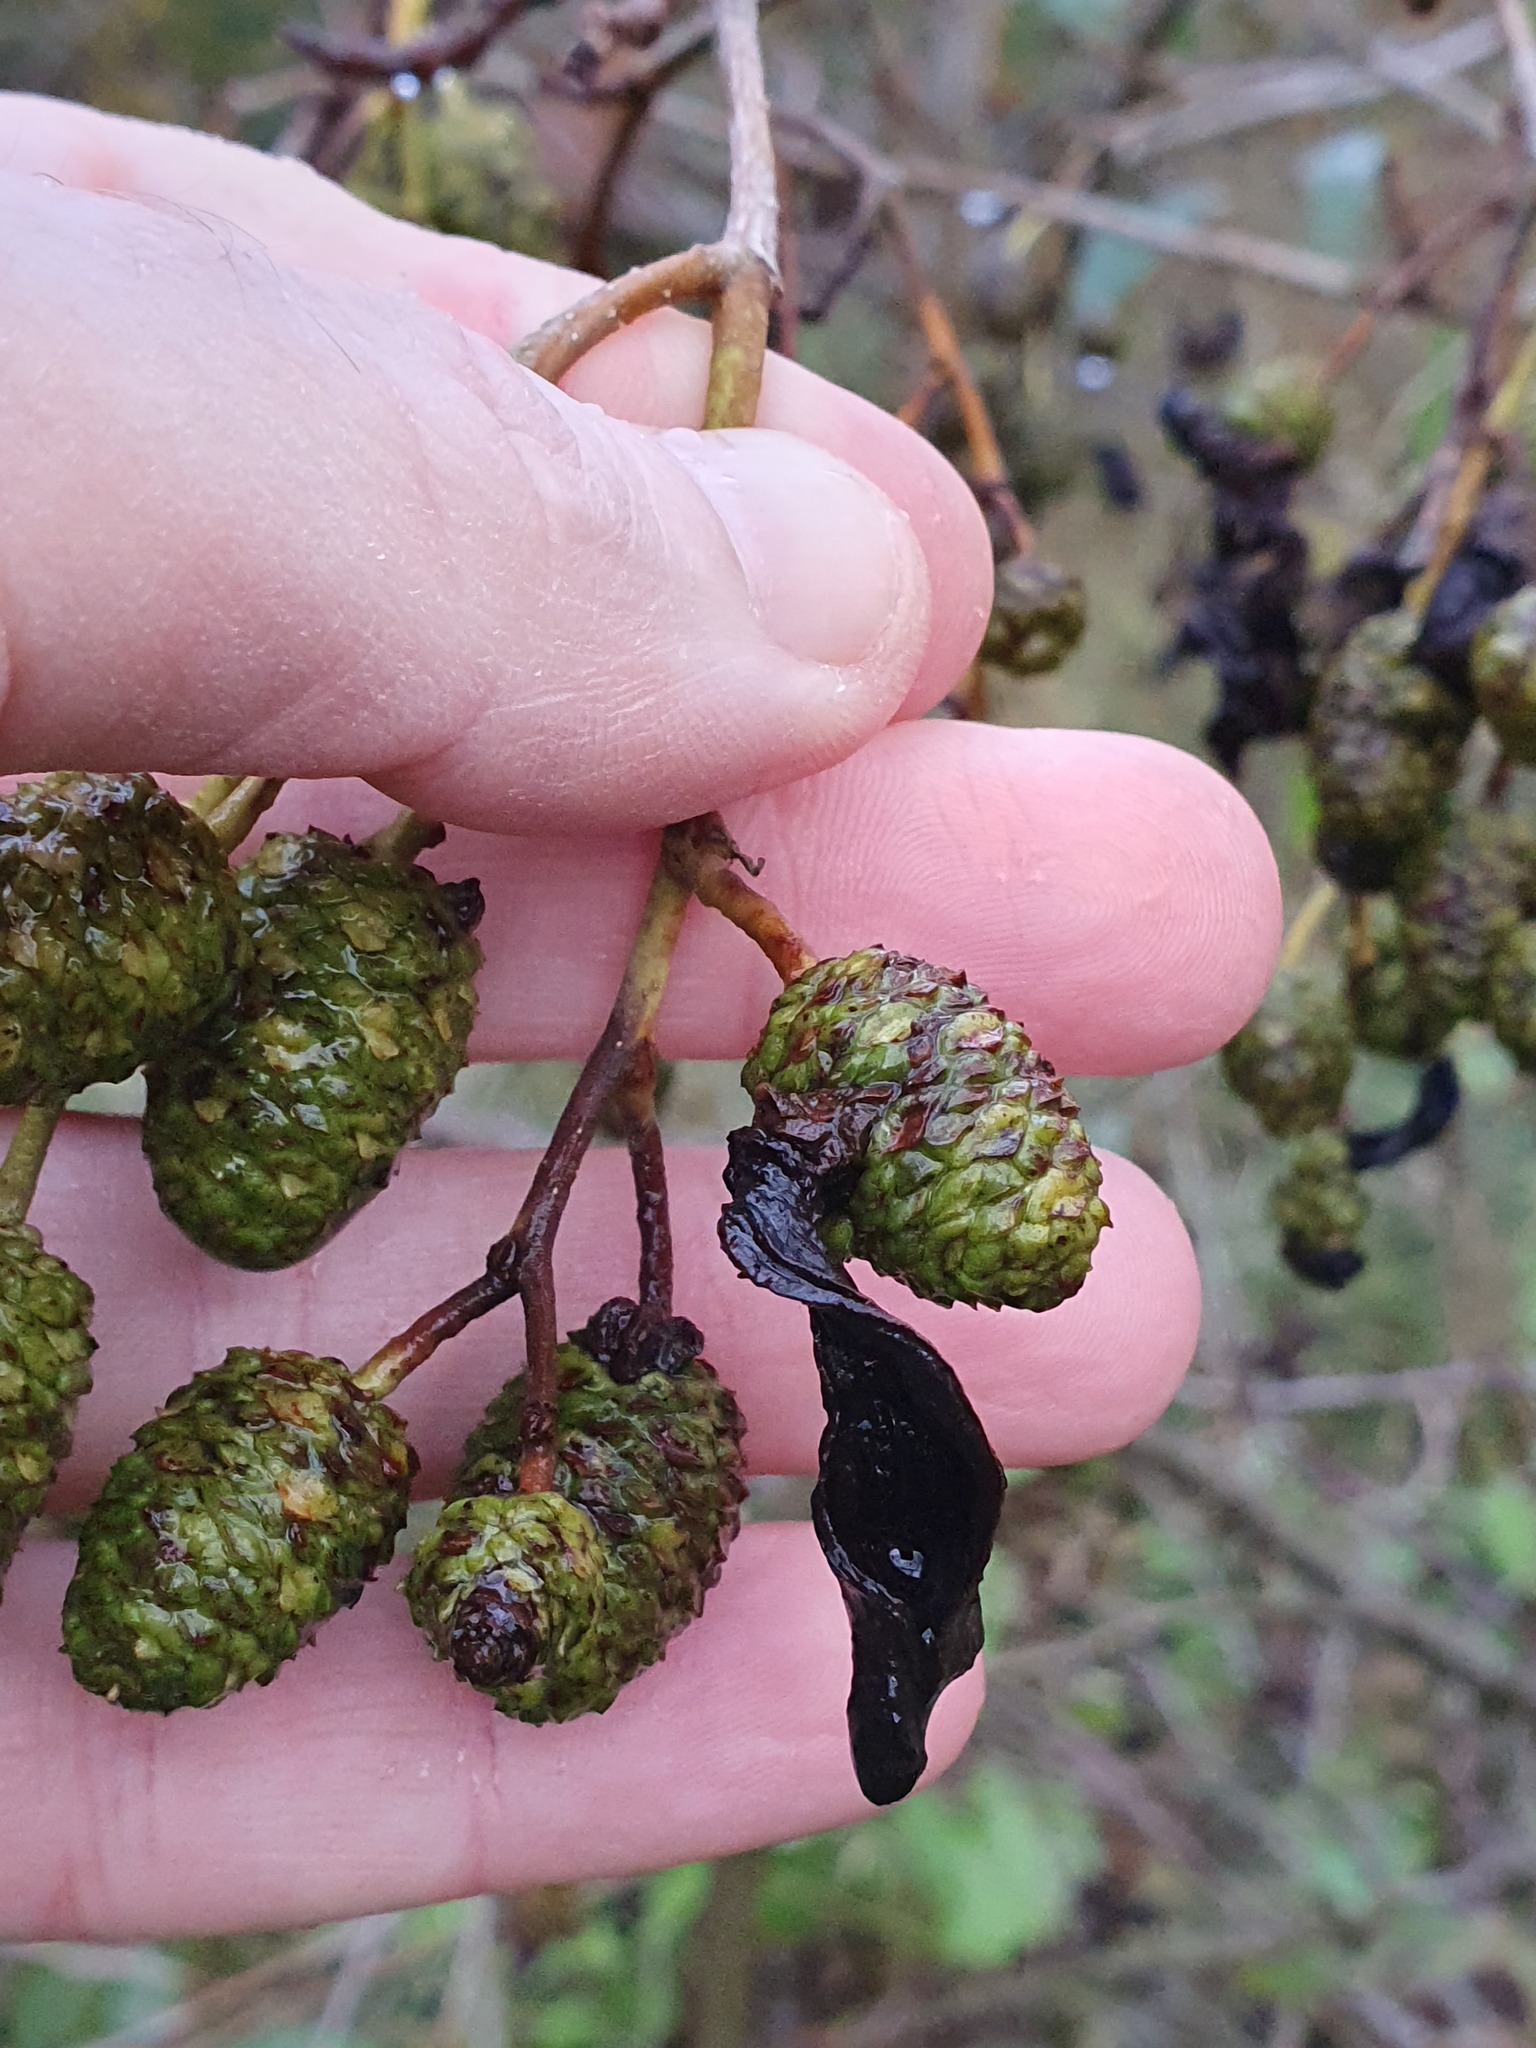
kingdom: Fungi
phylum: Ascomycota
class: Taphrinomycetes
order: Taphrinales
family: Taphrinaceae
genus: Taphrina
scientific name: Taphrina alni
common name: Alder tongue
